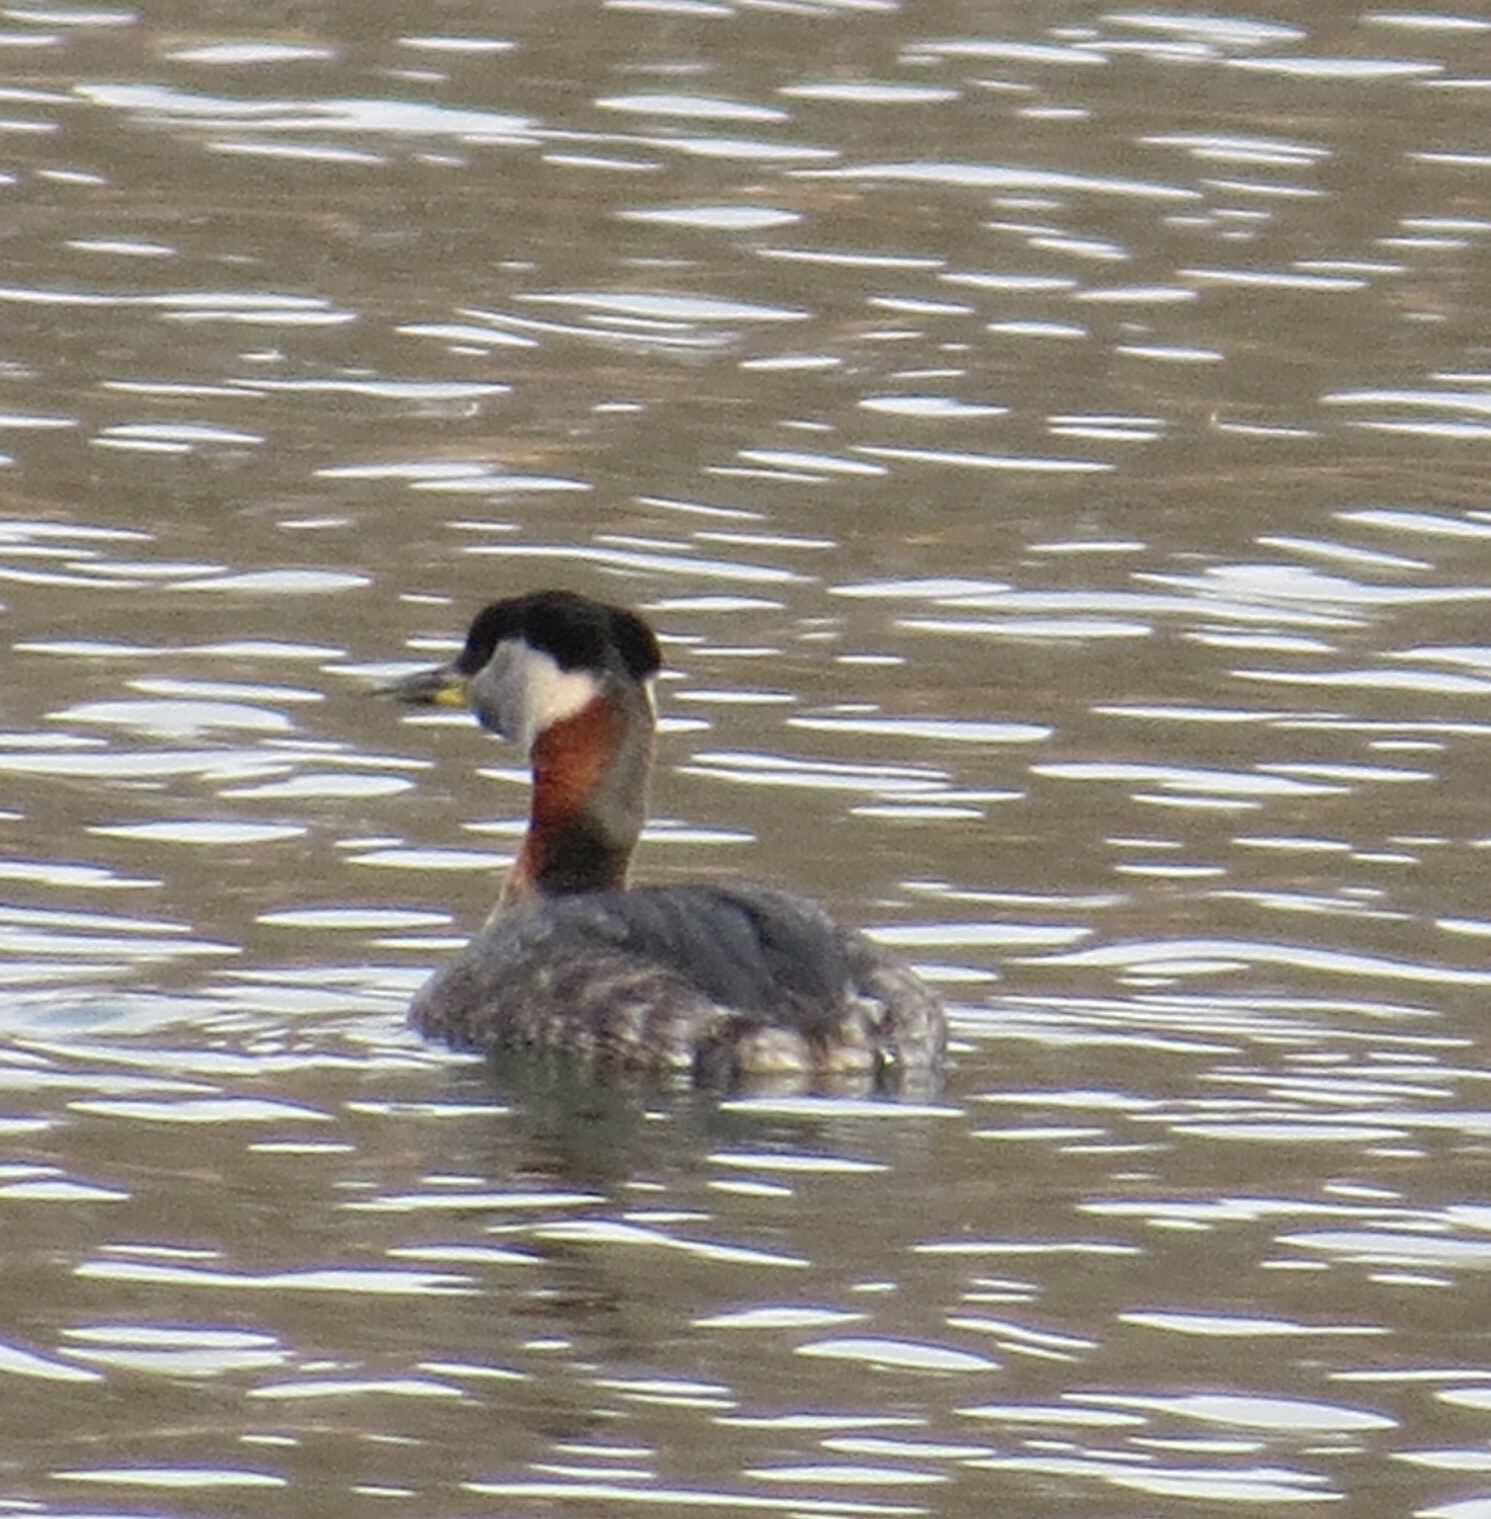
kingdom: Animalia
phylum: Chordata
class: Aves
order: Podicipediformes
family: Podicipedidae
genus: Podiceps
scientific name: Podiceps grisegena
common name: Red-necked grebe
